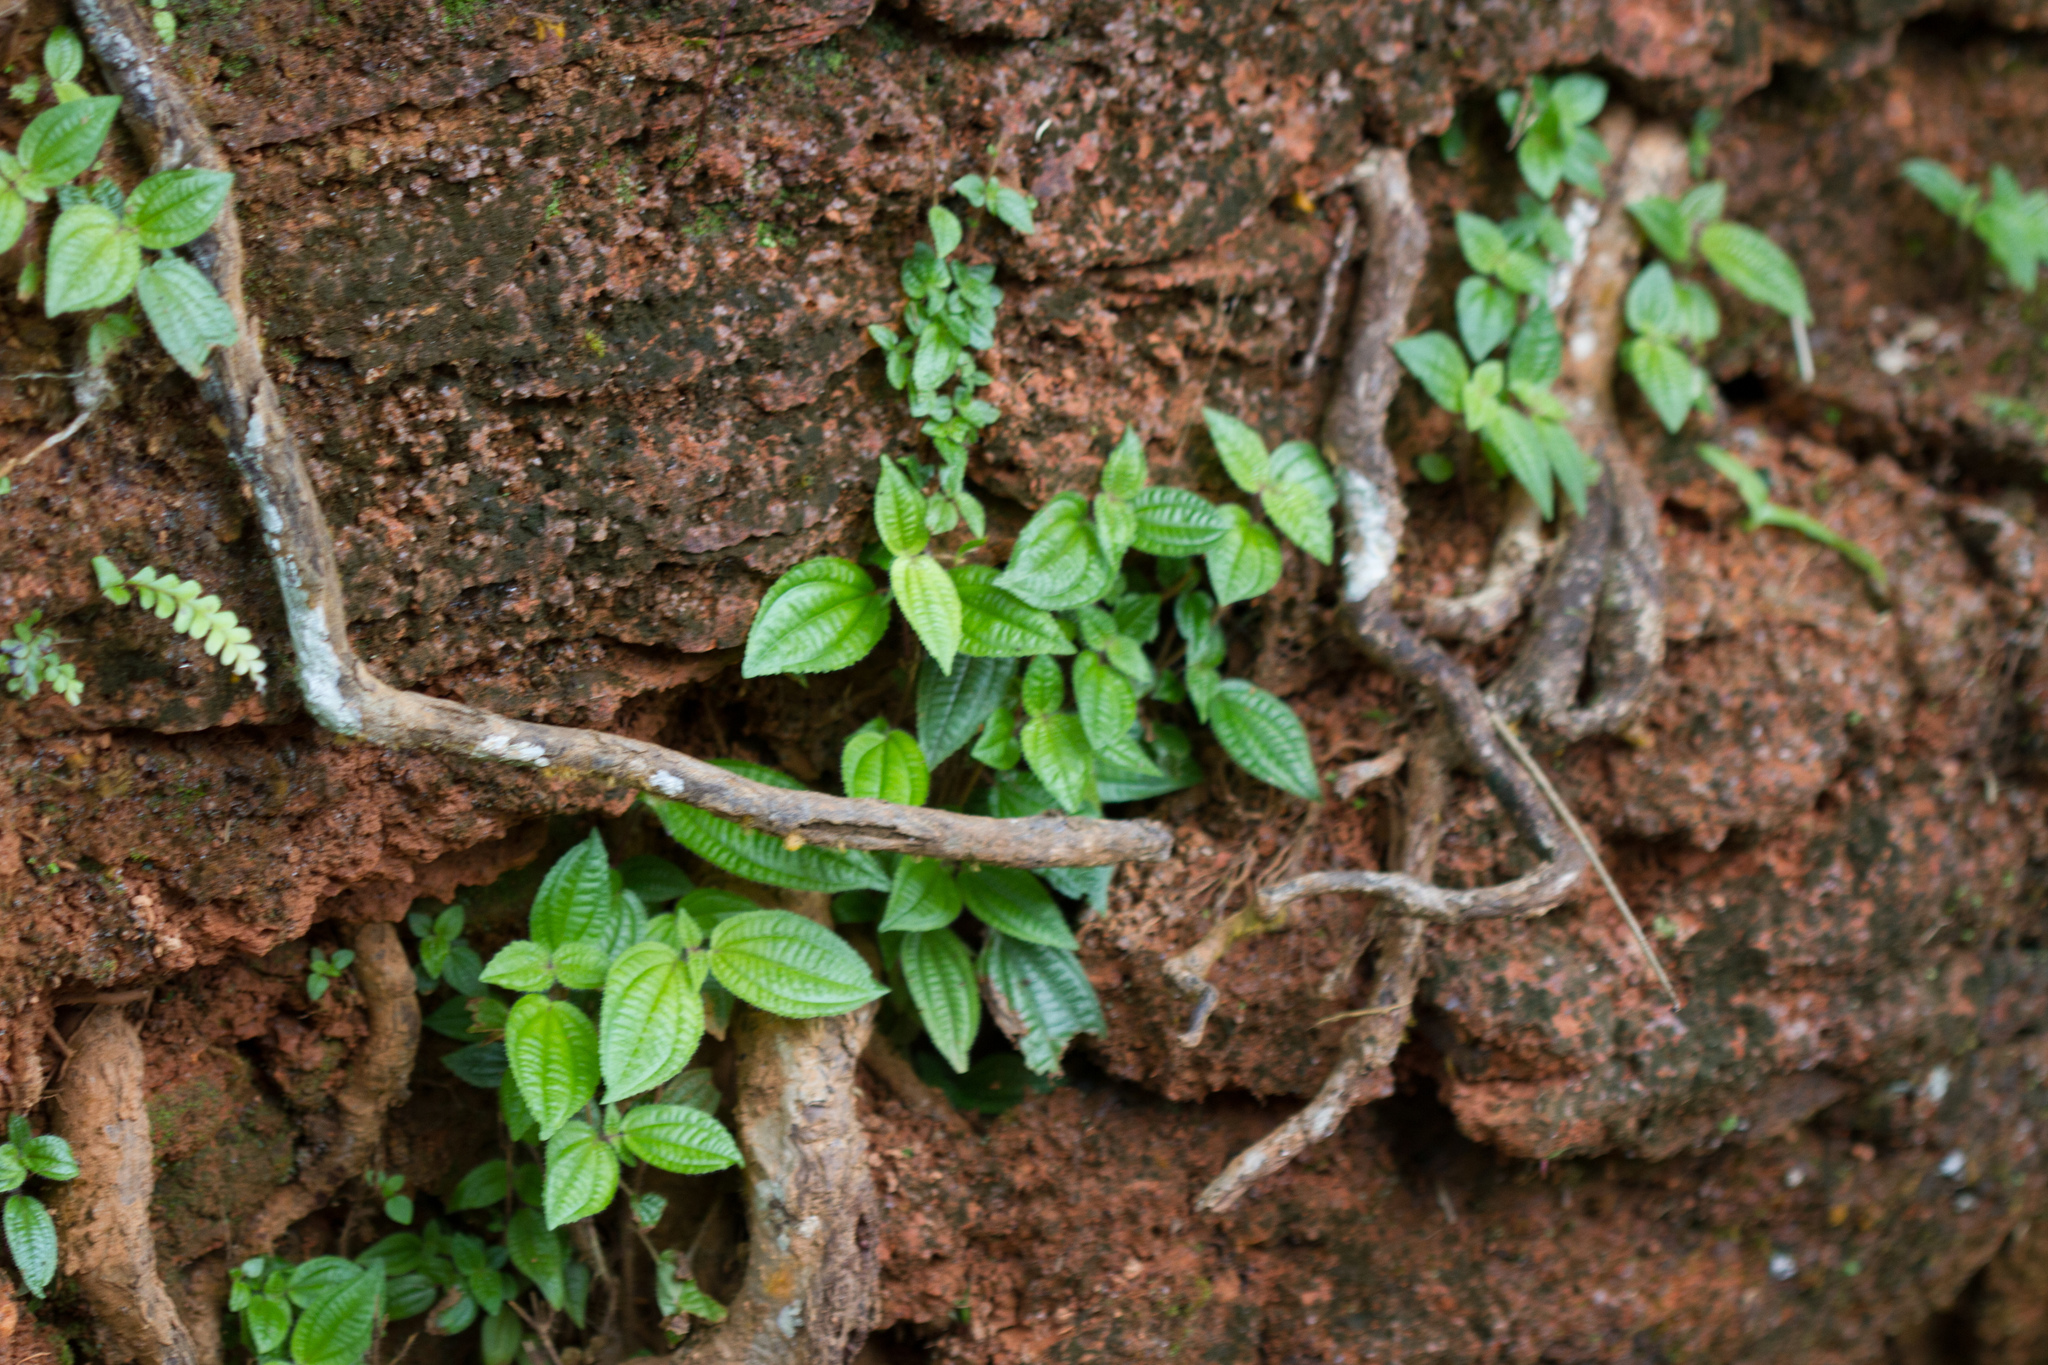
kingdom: Plantae
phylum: Tracheophyta
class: Magnoliopsida
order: Myrtales
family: Melastomataceae
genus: Miconia
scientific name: Miconia crenata
